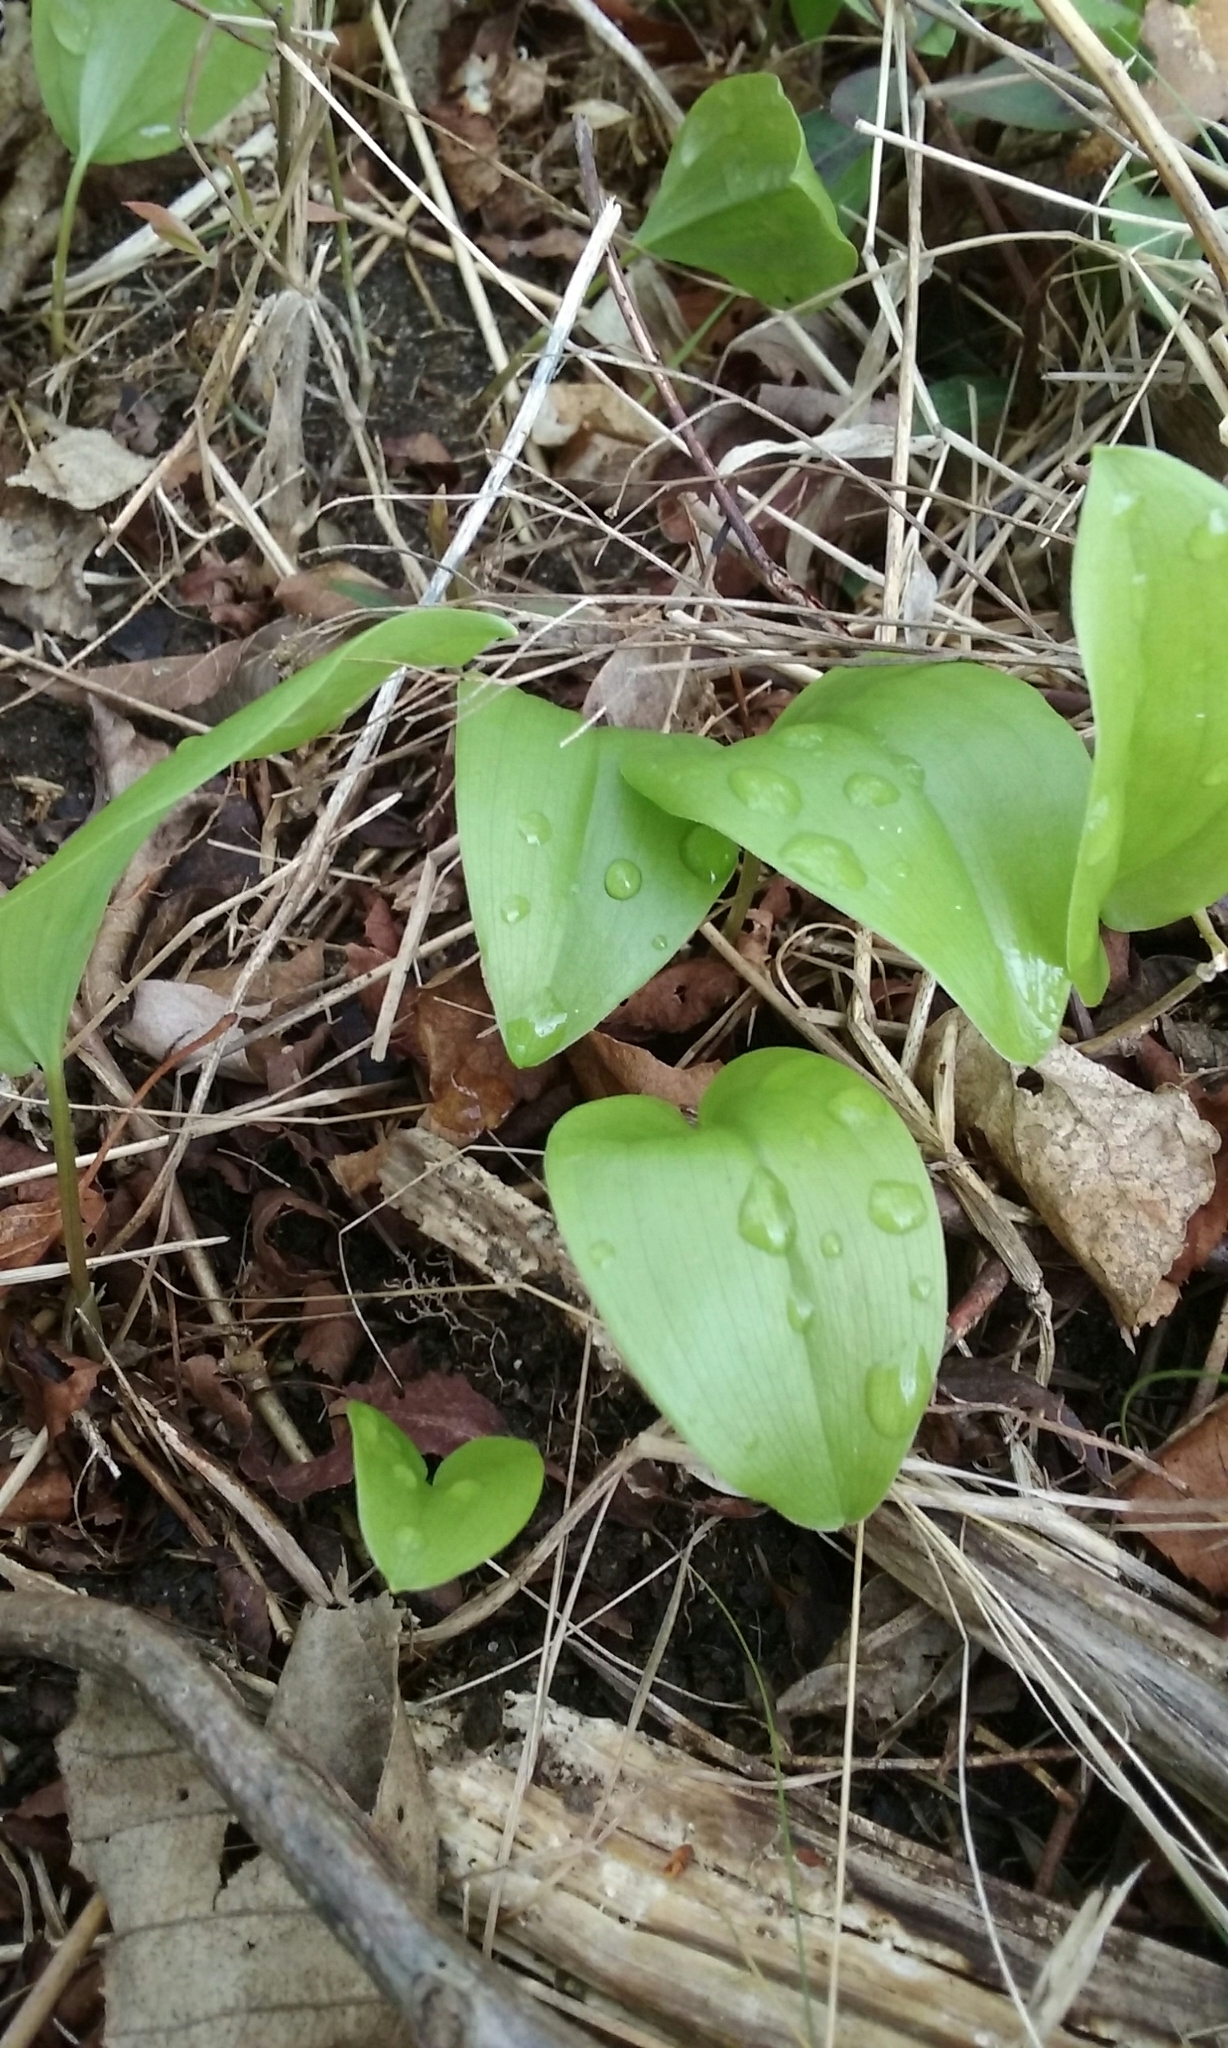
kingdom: Plantae
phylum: Tracheophyta
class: Liliopsida
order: Asparagales
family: Asparagaceae
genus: Maianthemum
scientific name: Maianthemum canadense
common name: False lily-of-the-valley
